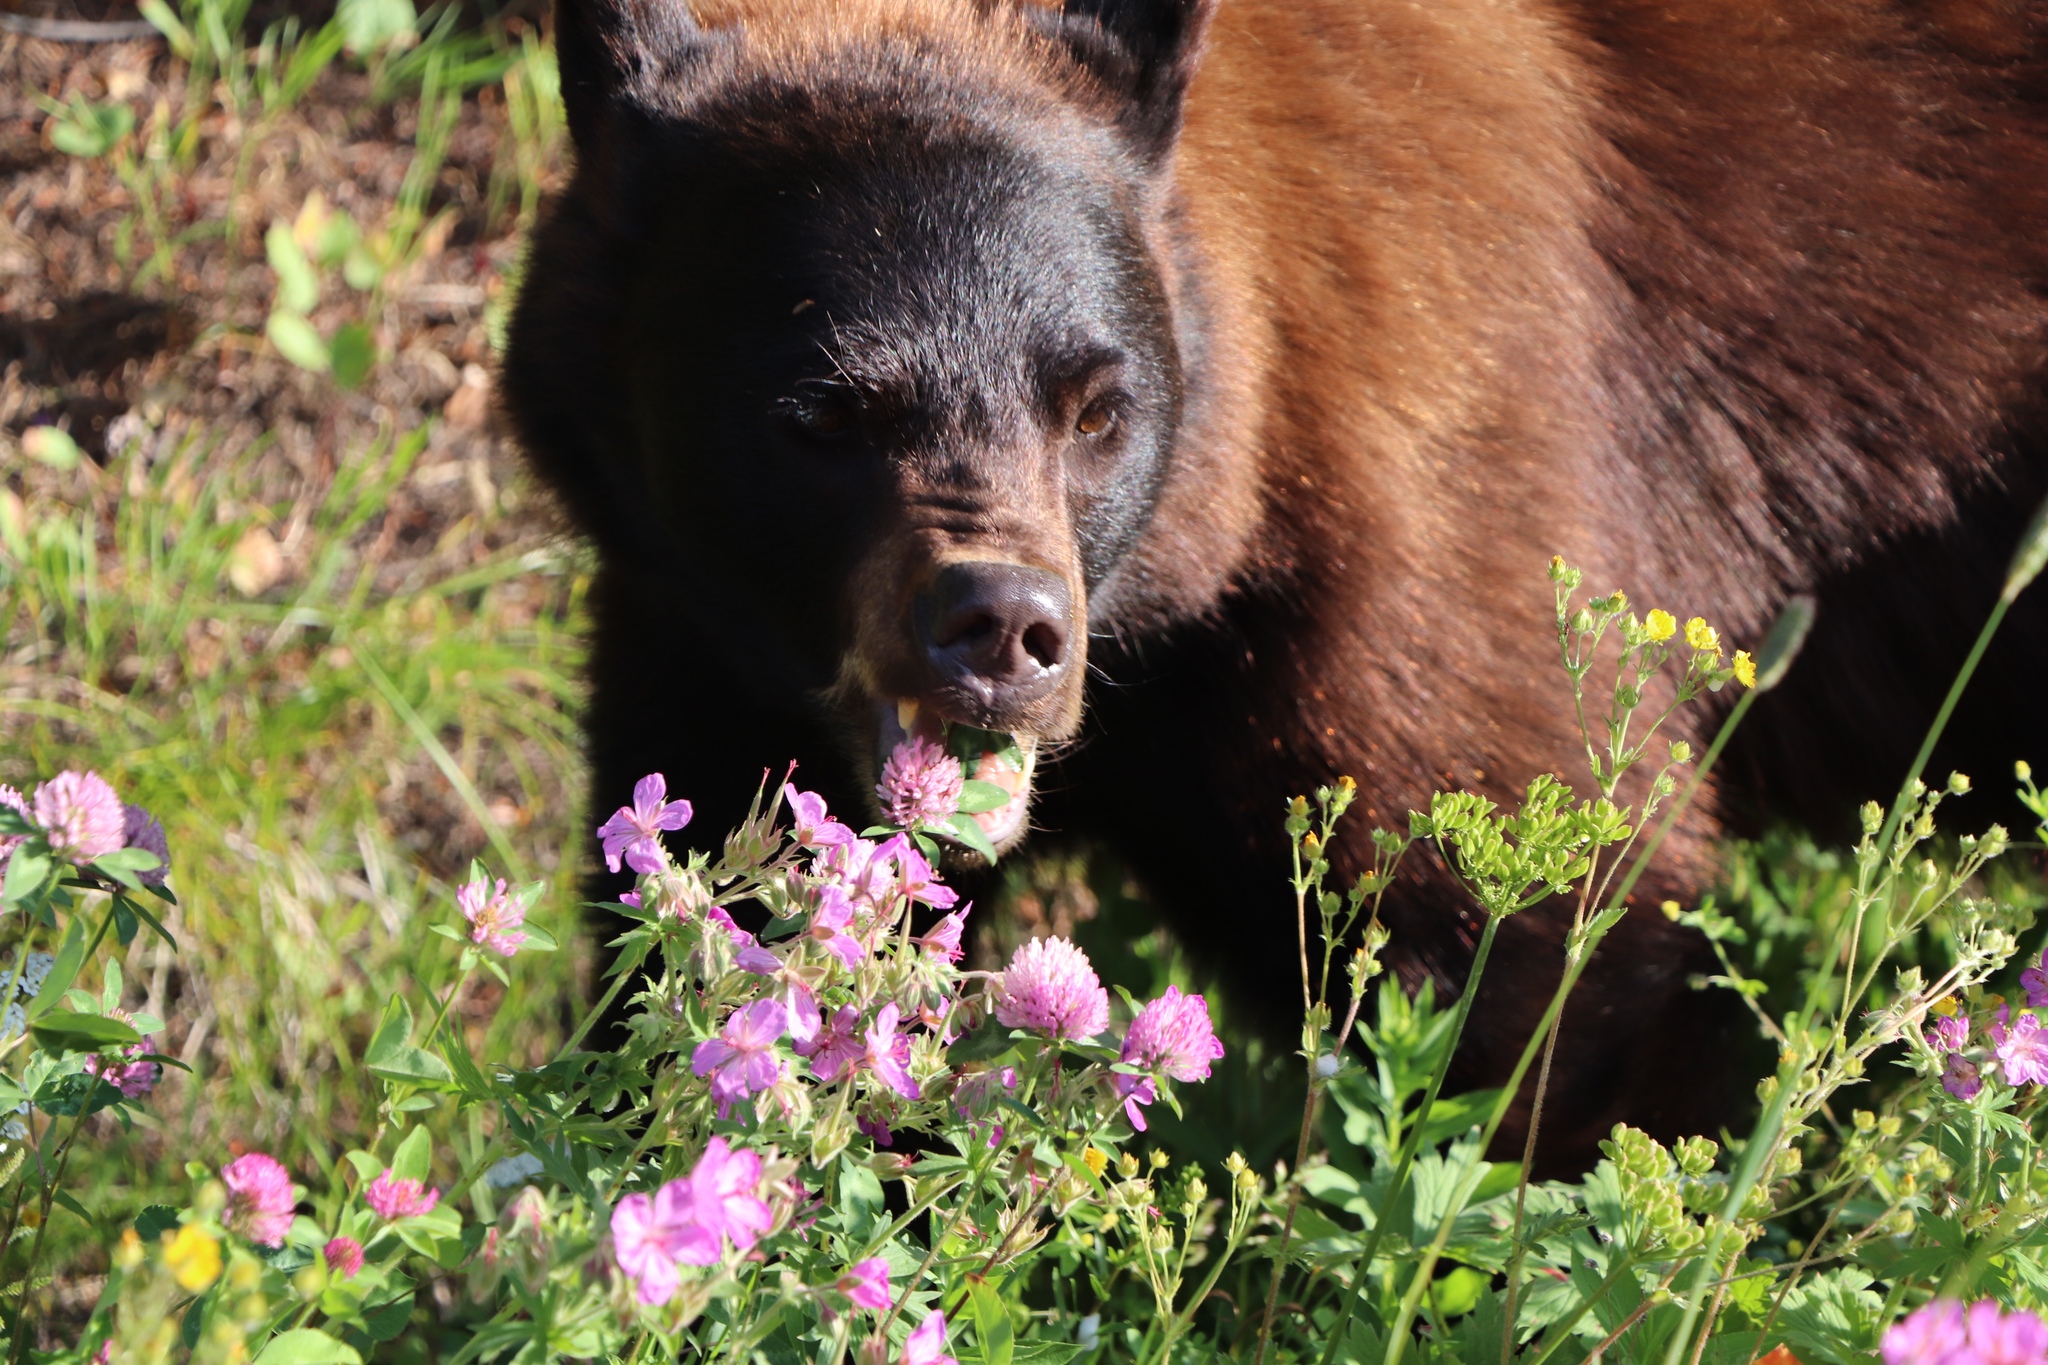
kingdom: Animalia
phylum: Chordata
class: Mammalia
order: Carnivora
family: Ursidae
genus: Ursus
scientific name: Ursus americanus
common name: American black bear
